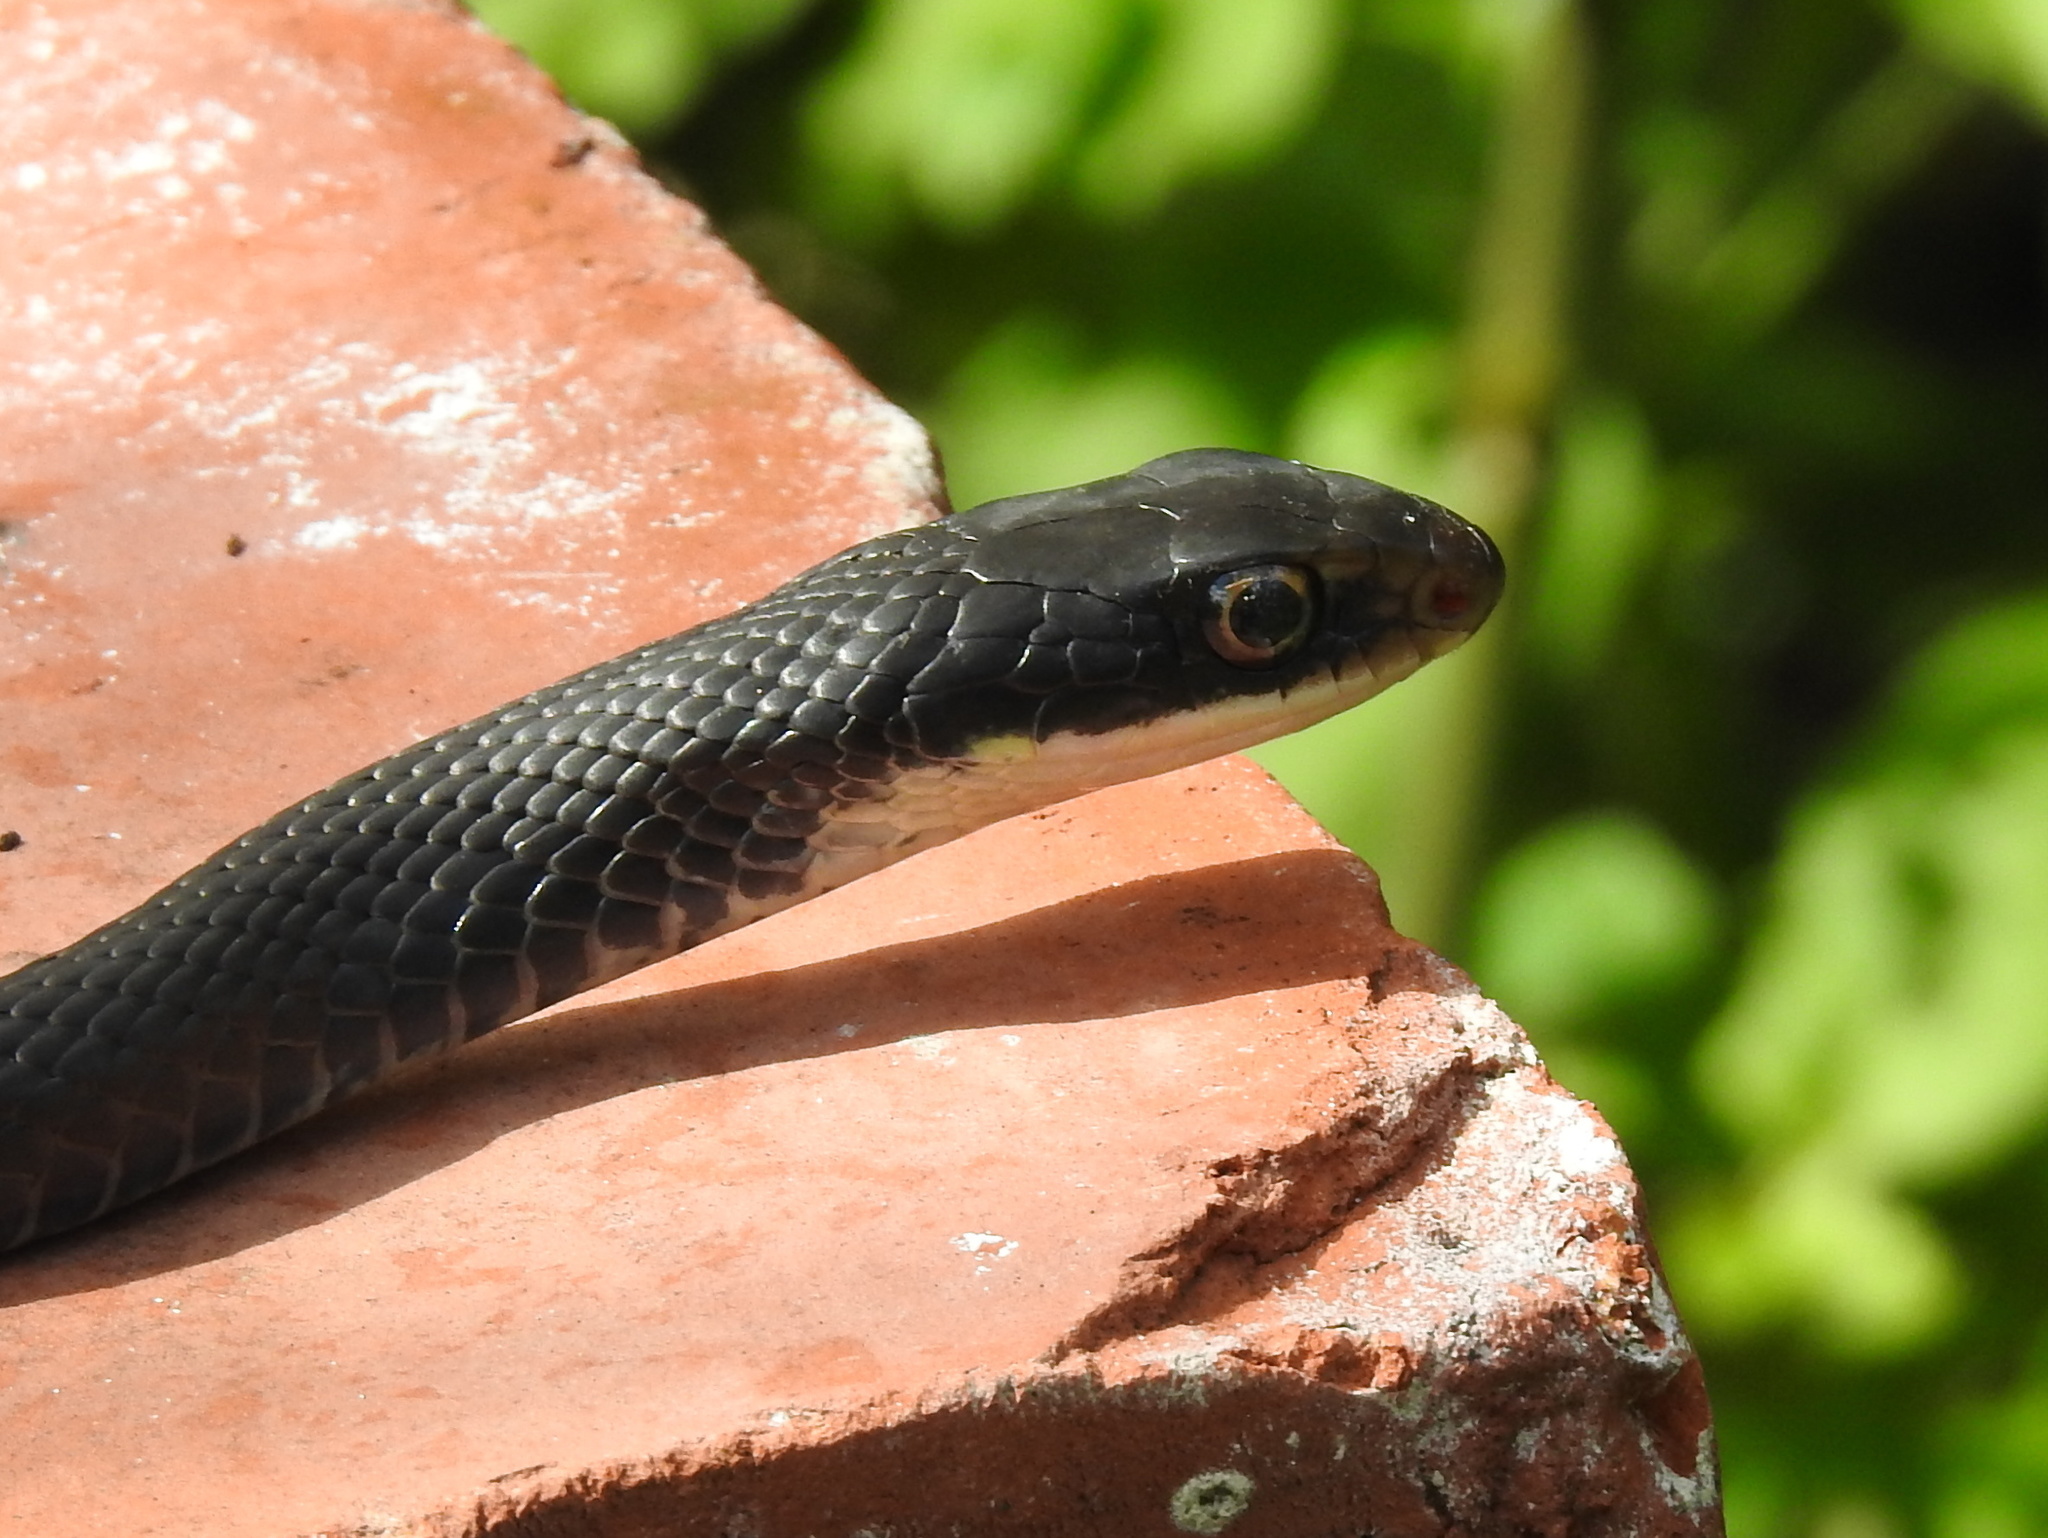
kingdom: Animalia
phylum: Chordata
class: Squamata
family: Colubridae
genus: Coluber
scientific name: Coluber constrictor
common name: Eastern racer
